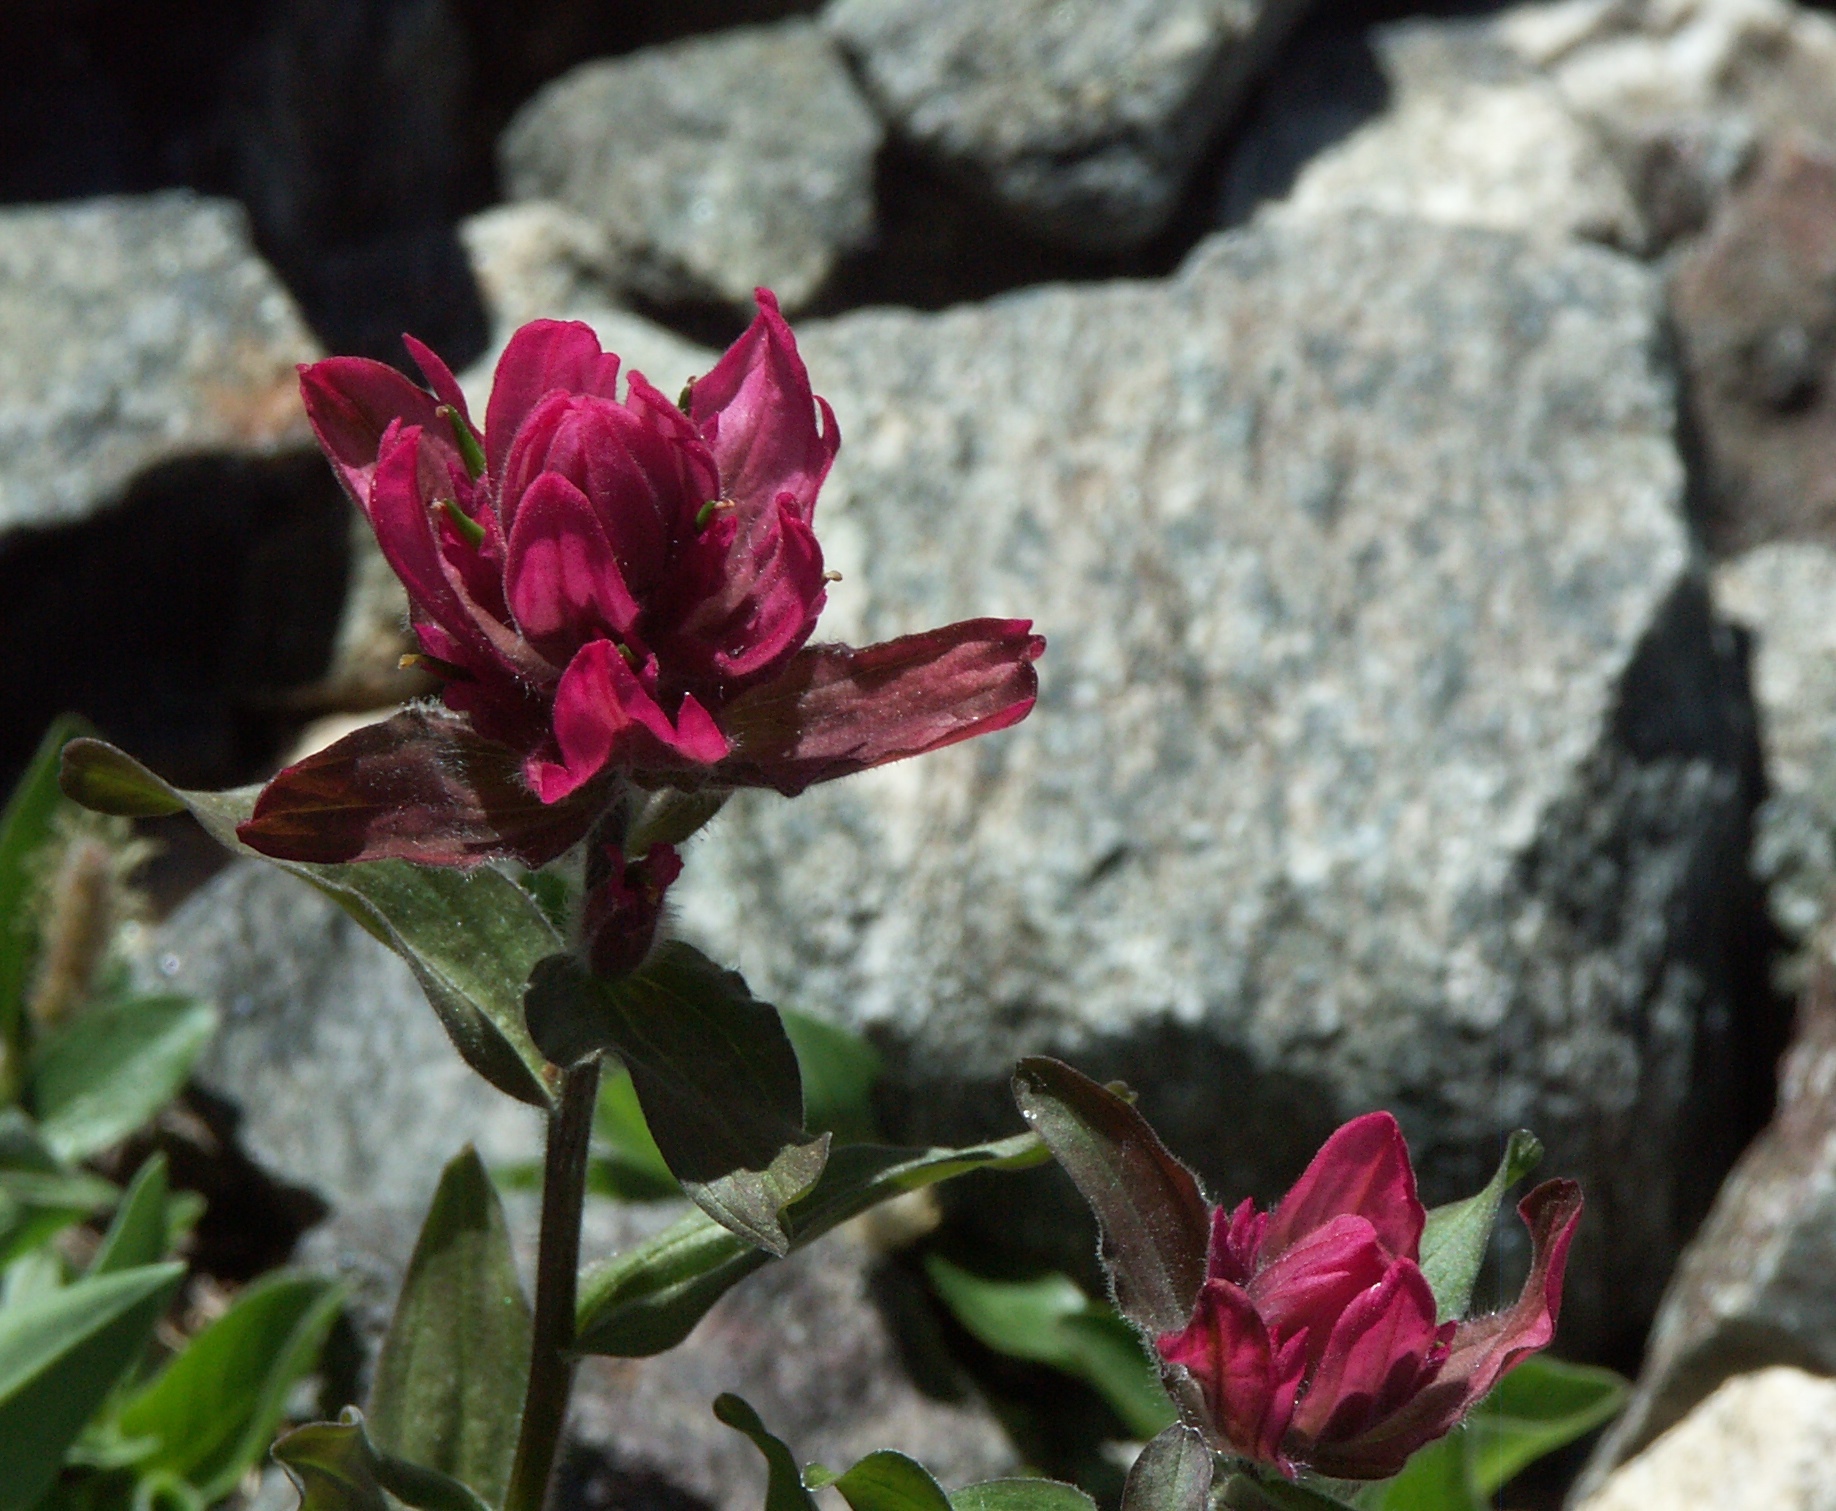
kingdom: Plantae
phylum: Tracheophyta
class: Magnoliopsida
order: Lamiales
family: Orobanchaceae
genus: Castilleja
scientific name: Castilleja rhexifolia
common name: Rocky mountain paintbrush
